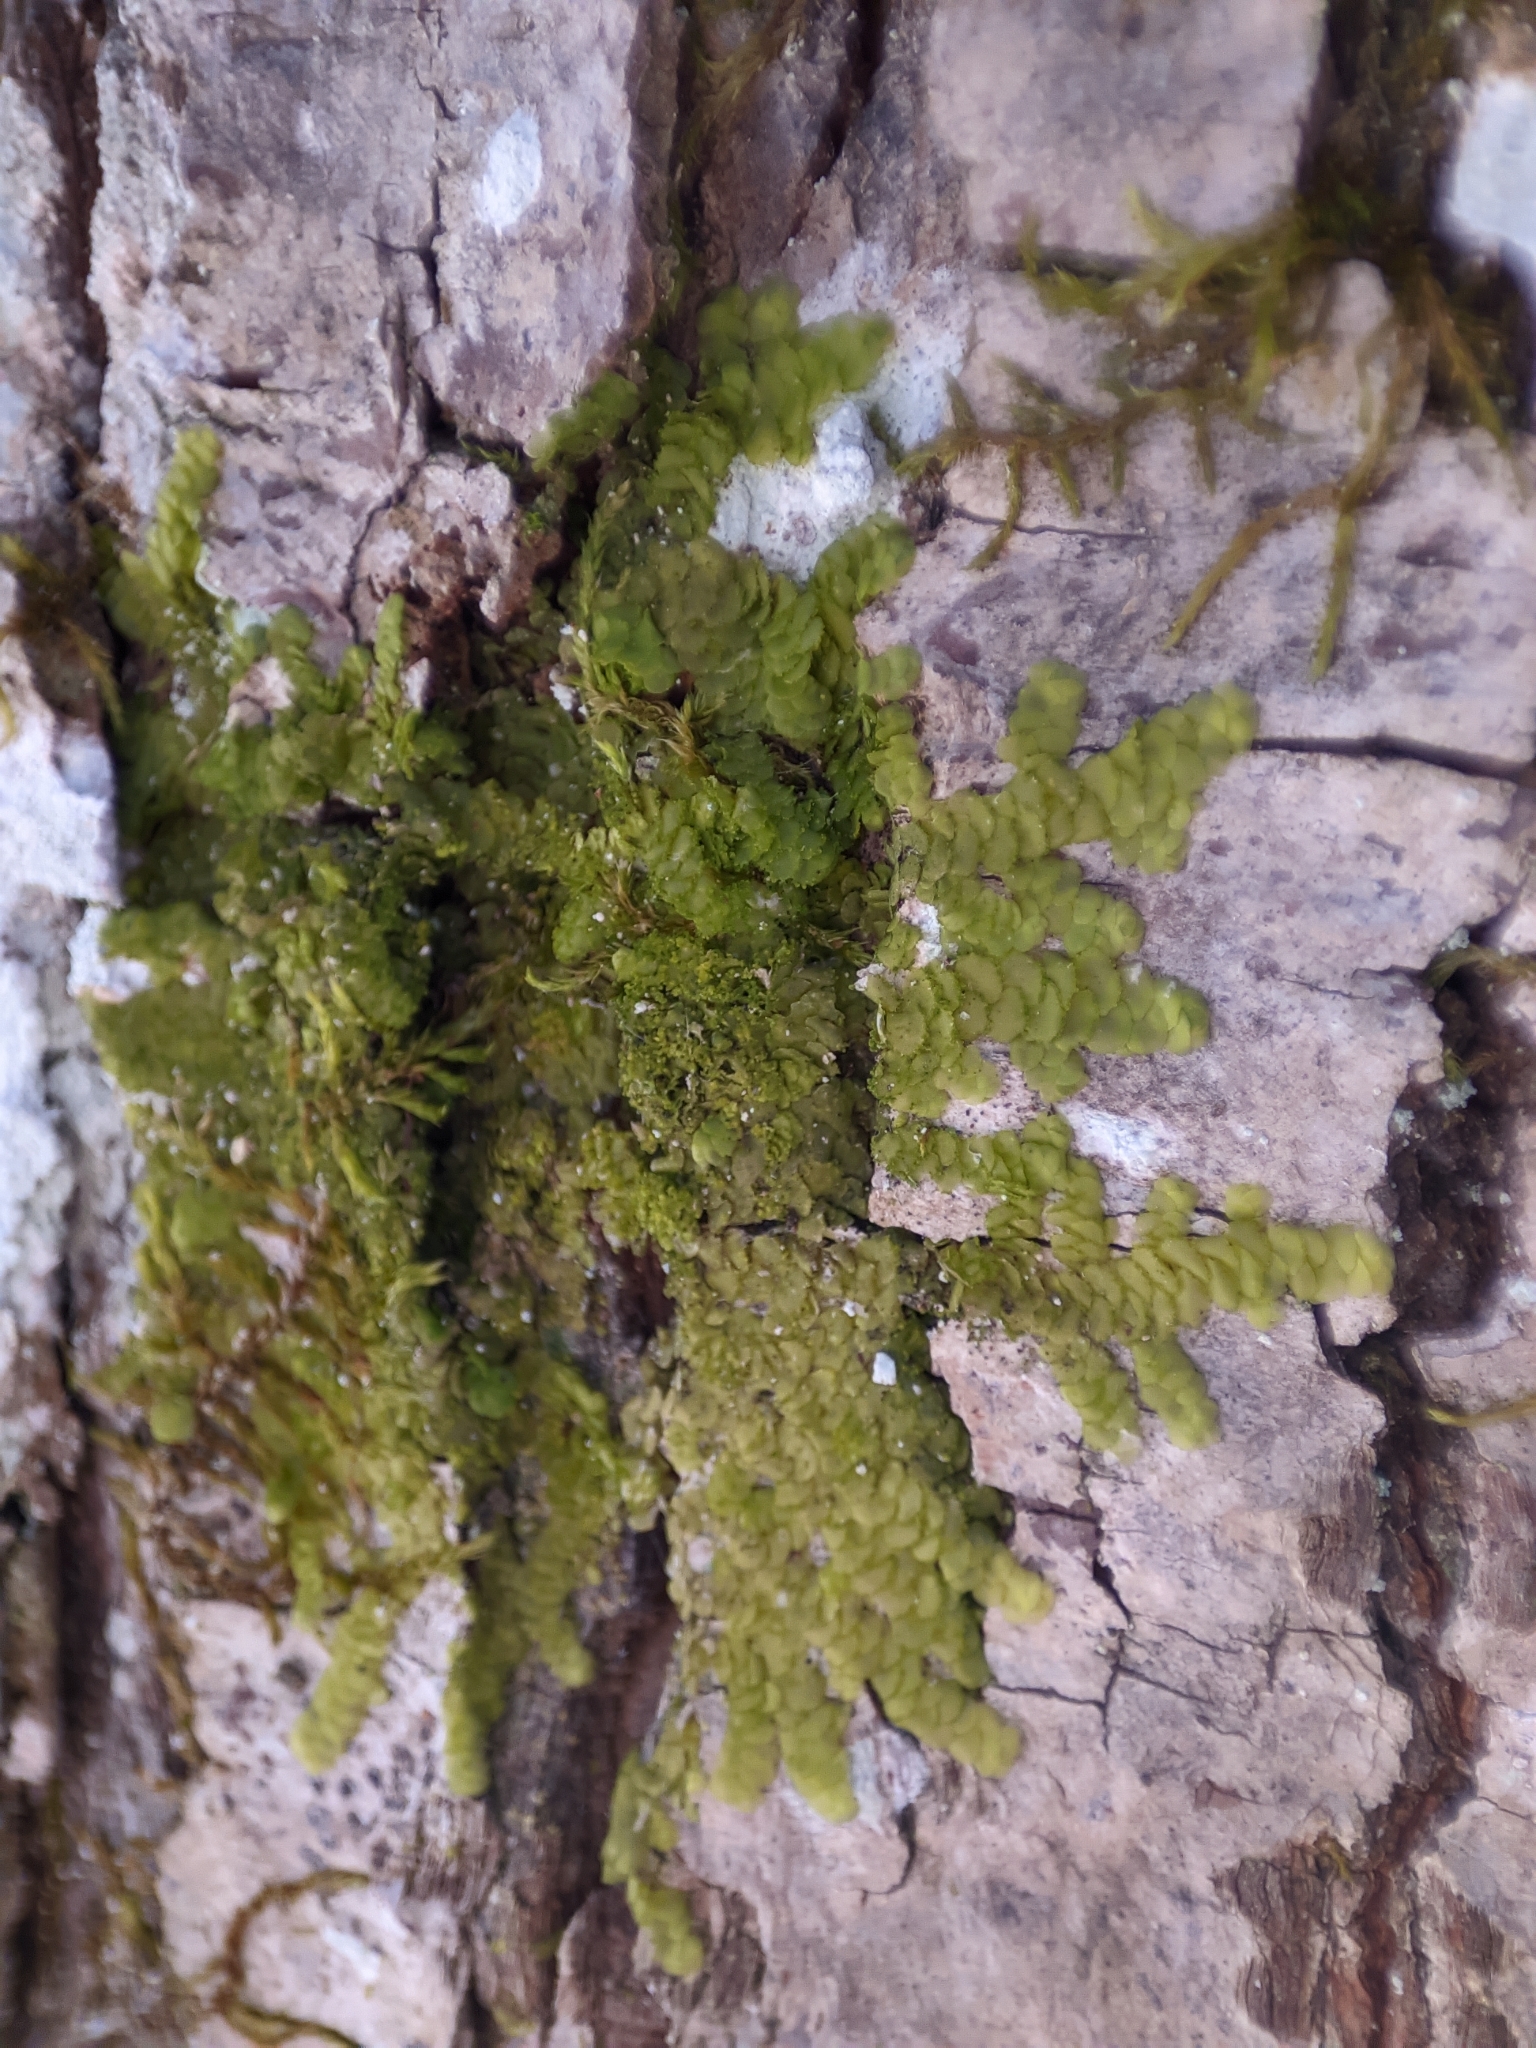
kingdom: Plantae
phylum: Marchantiophyta
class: Jungermanniopsida
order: Porellales
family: Radulaceae
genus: Radula
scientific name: Radula complanata
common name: Flat-leaved scalewort
